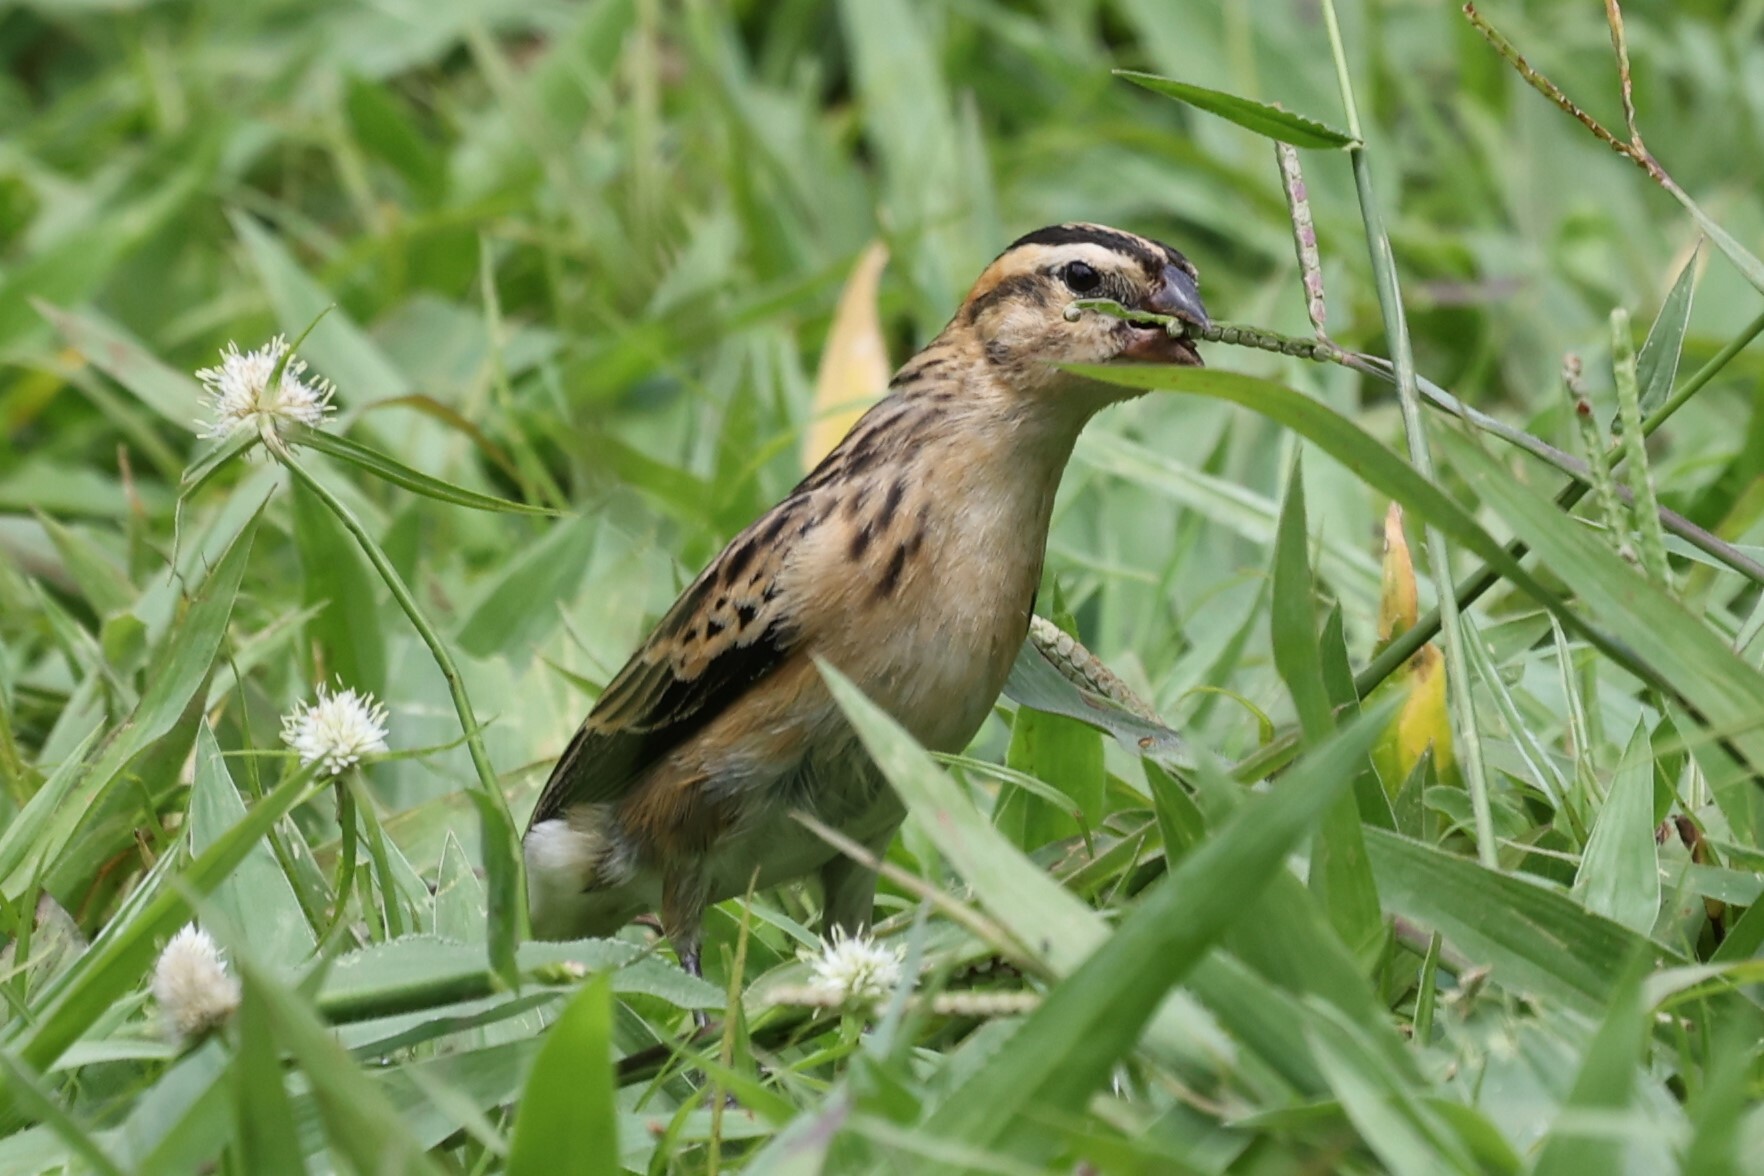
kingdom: Animalia
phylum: Chordata
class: Aves
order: Passeriformes
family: Viduidae
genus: Vidua
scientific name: Vidua macroura
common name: Pin-tailed whydah
